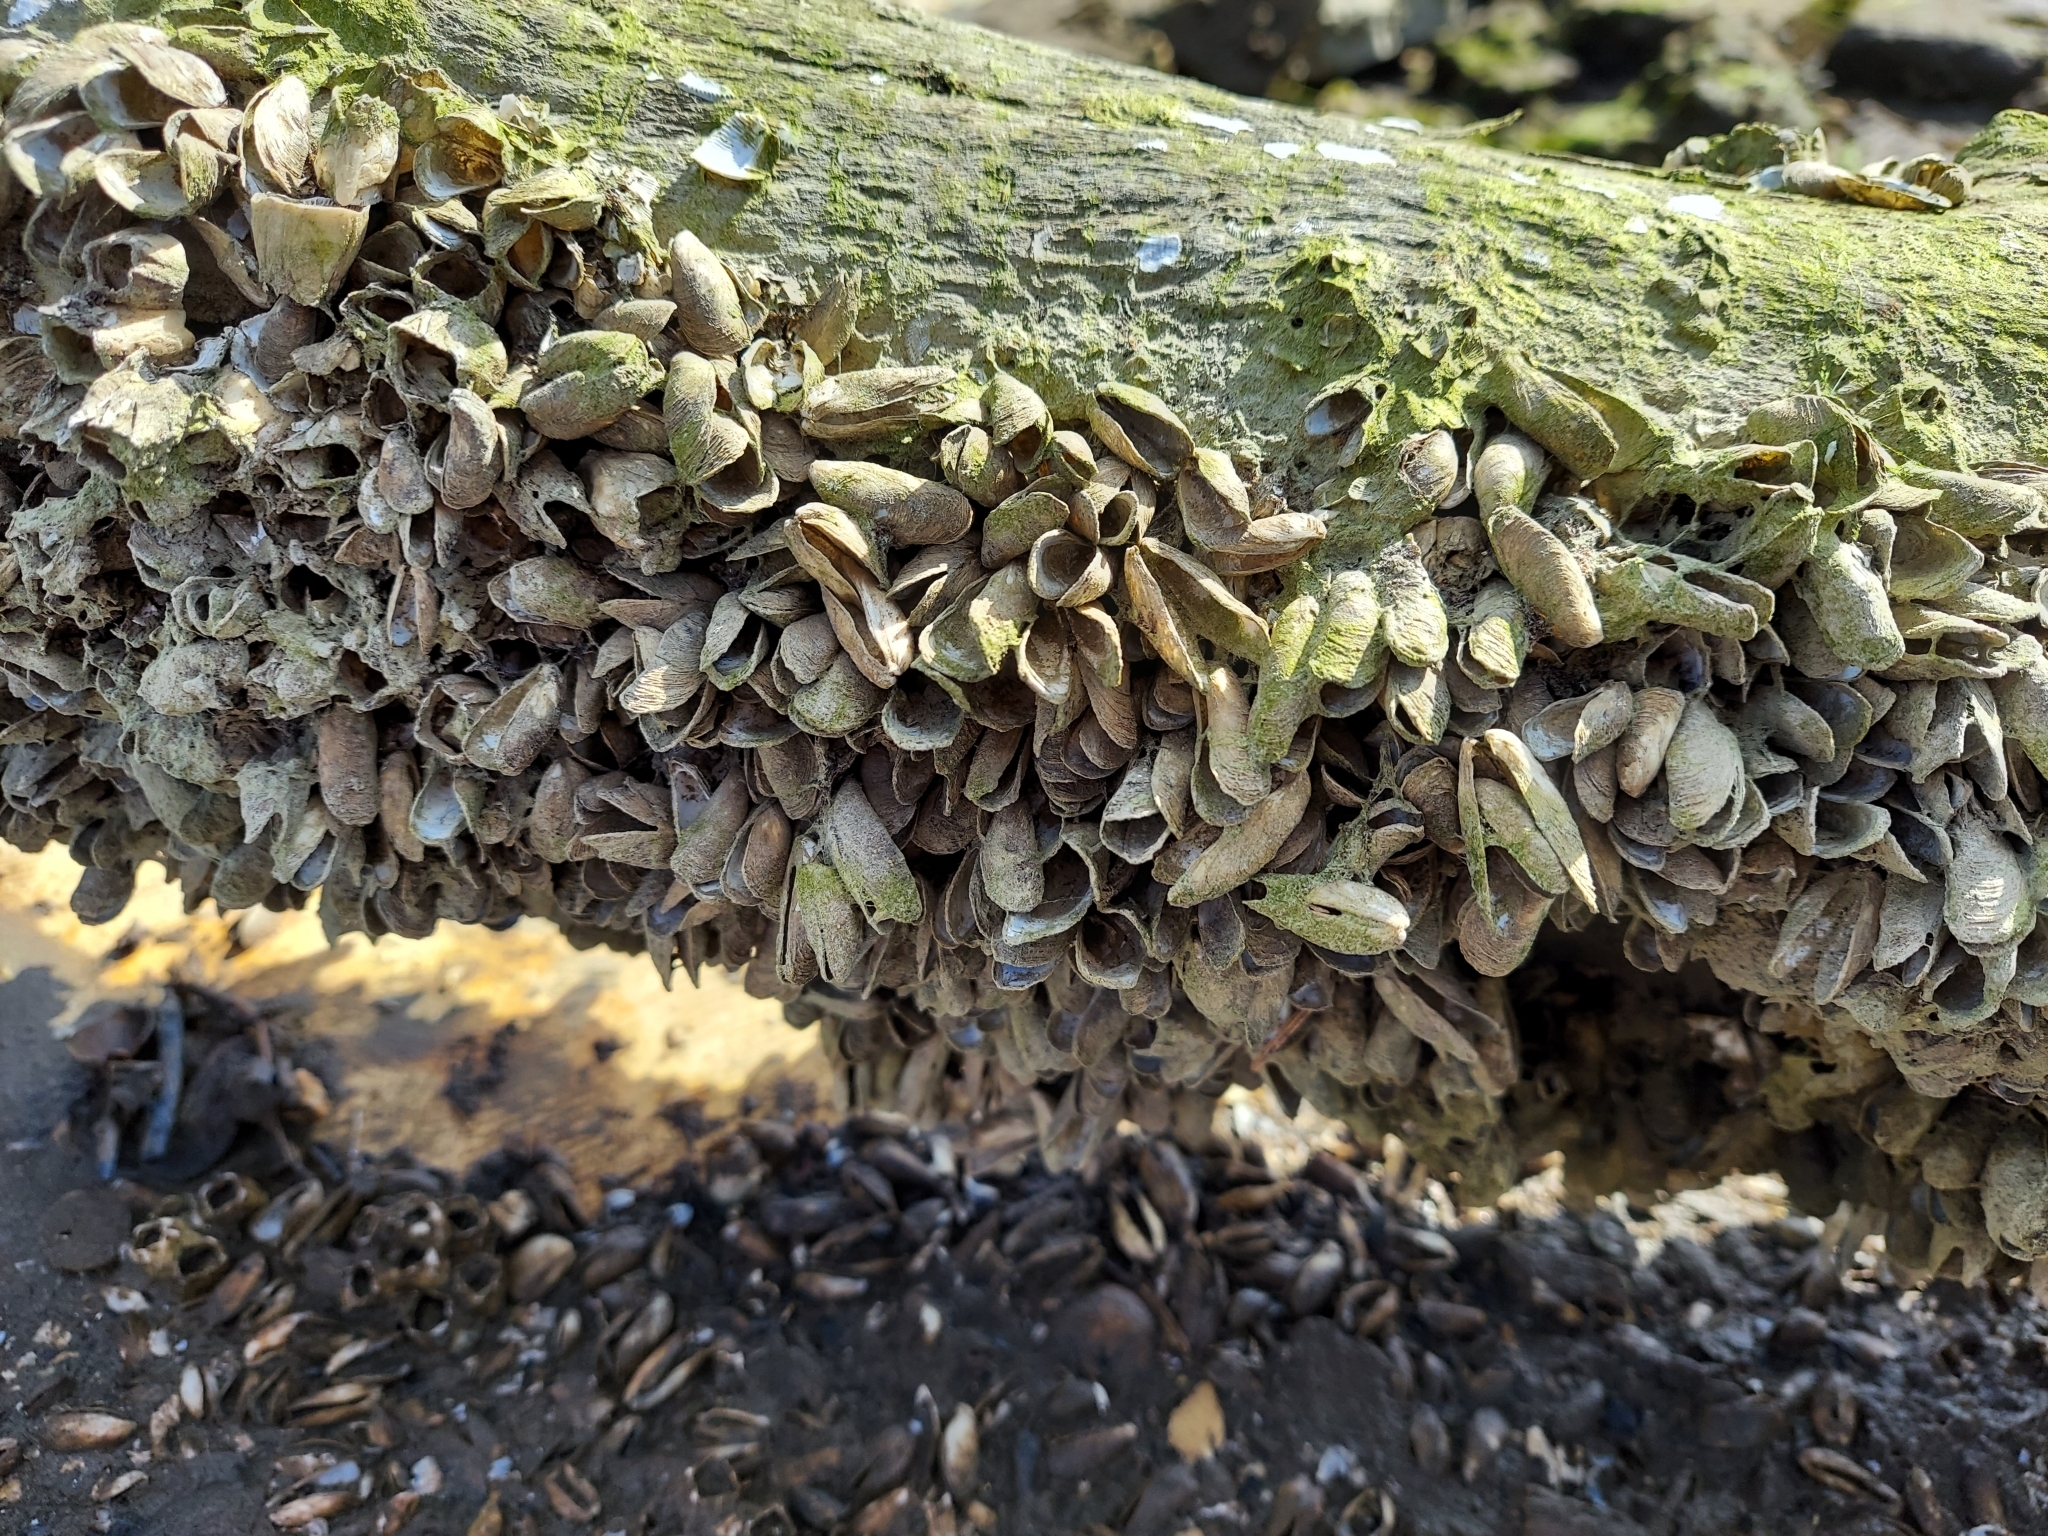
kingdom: Animalia
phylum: Mollusca
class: Bivalvia
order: Myida
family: Dreissenidae
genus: Mytilopsis
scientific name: Mytilopsis leucophaeata
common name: Conrad's false mussel
